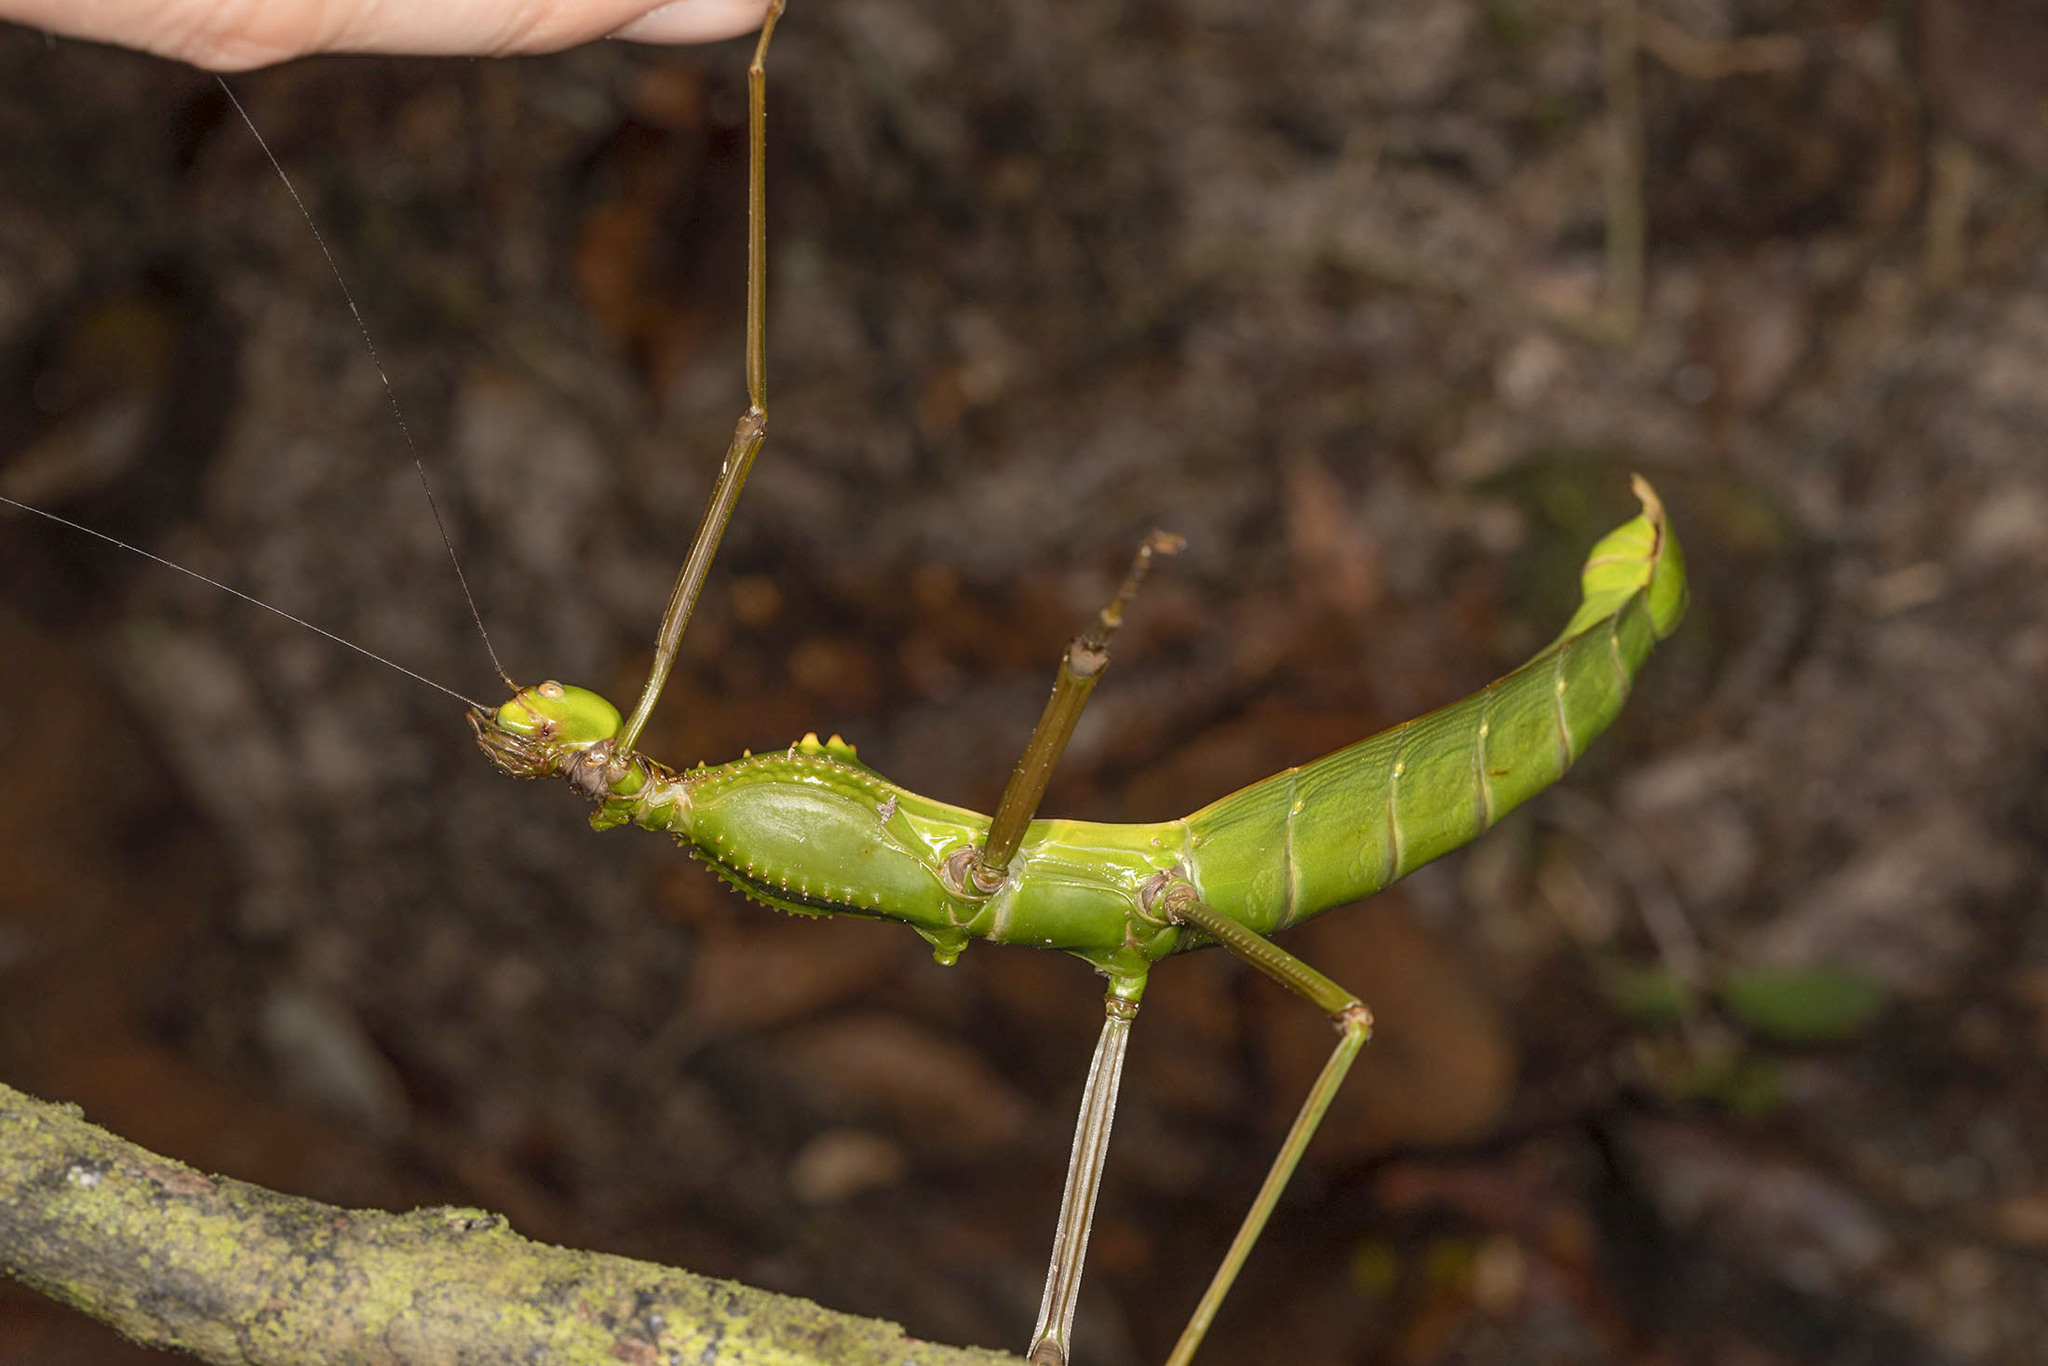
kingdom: Animalia
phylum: Arthropoda
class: Insecta
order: Phasmida
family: Phasmatidae
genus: Cranidium
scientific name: Cranidium gibbosum
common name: Hump-backed stick insect
